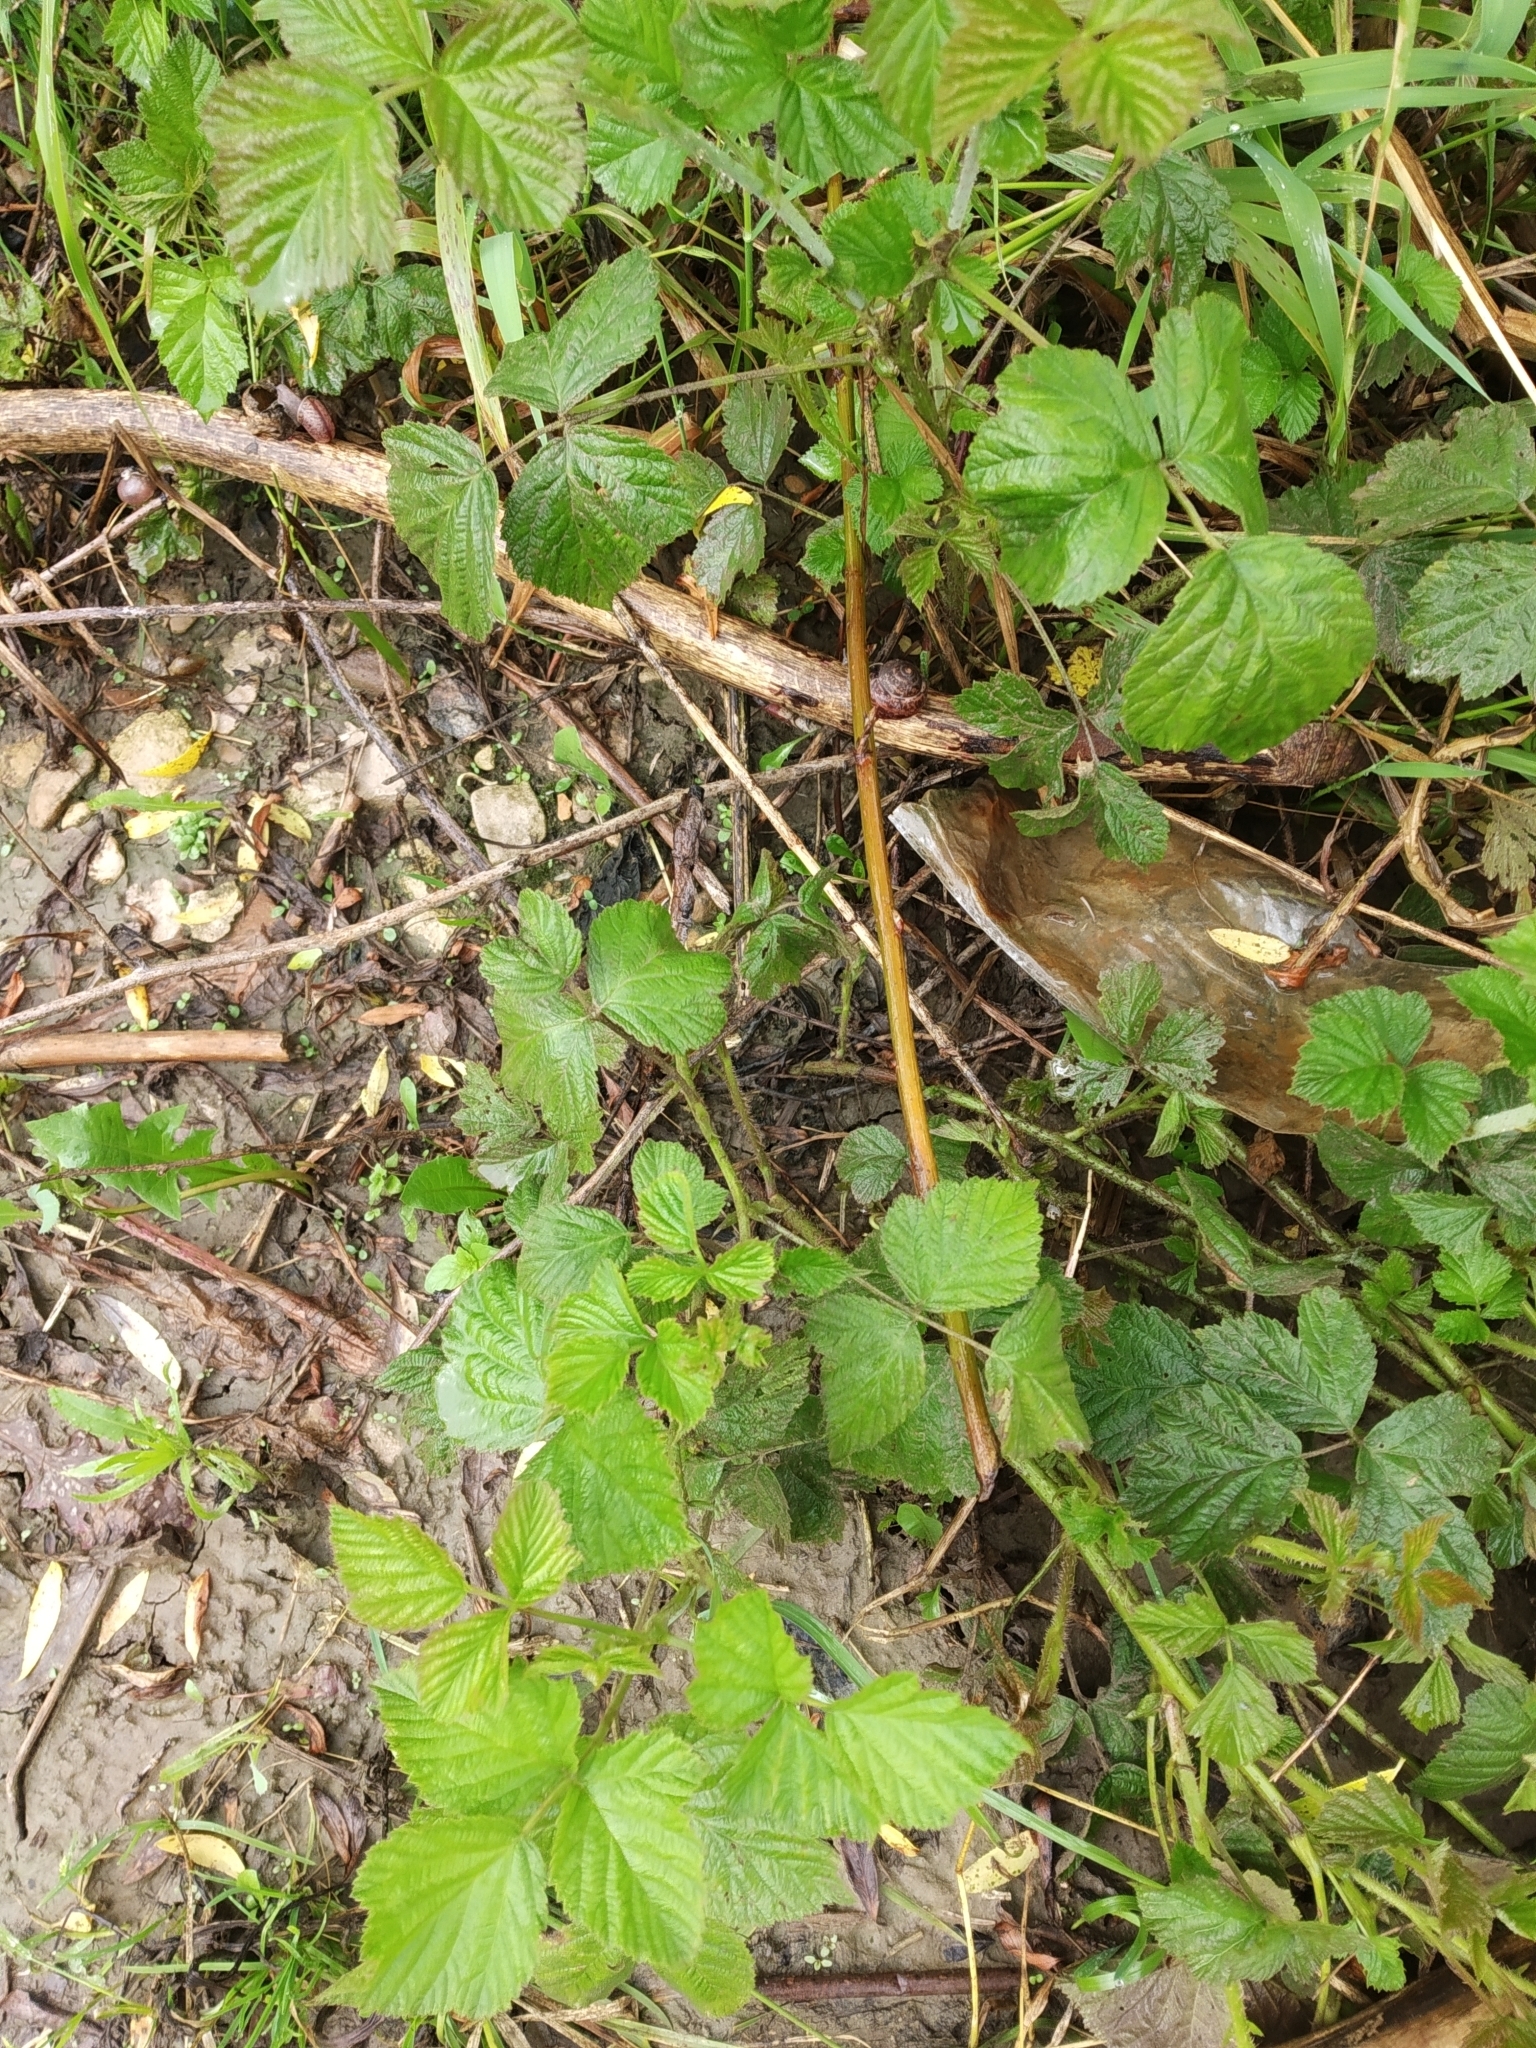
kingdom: Plantae
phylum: Tracheophyta
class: Magnoliopsida
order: Rosales
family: Rosaceae
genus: Rubus
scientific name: Rubus caesius
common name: Dewberry
